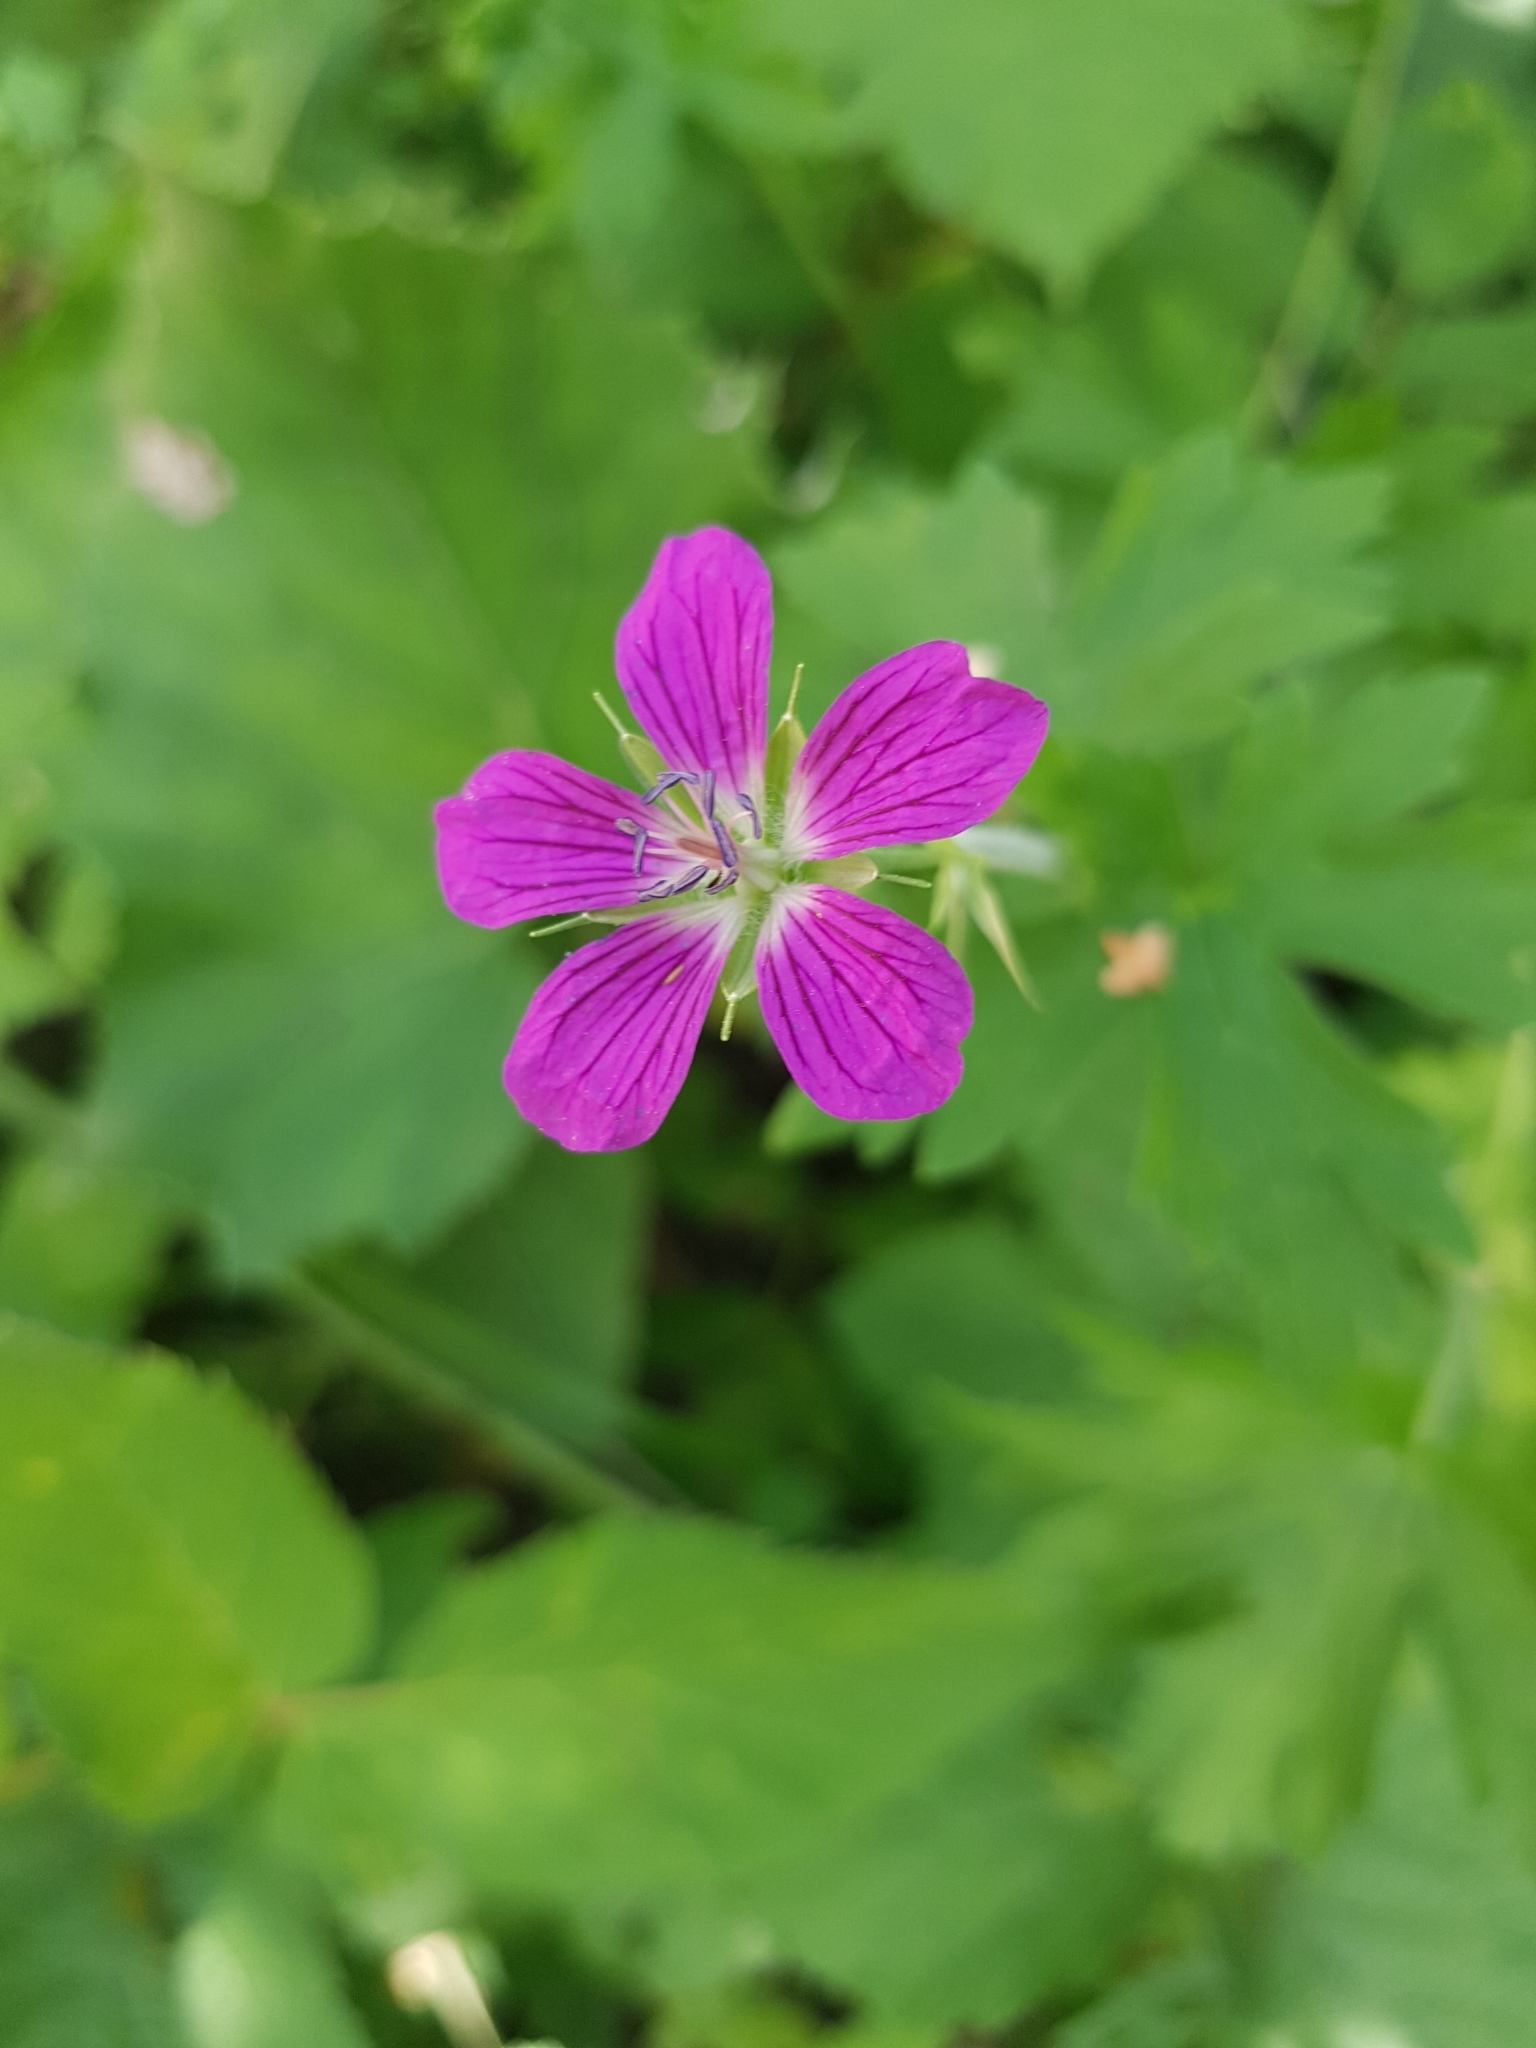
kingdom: Plantae
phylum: Tracheophyta
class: Magnoliopsida
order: Geraniales
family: Geraniaceae
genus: Geranium
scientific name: Geranium palustre
